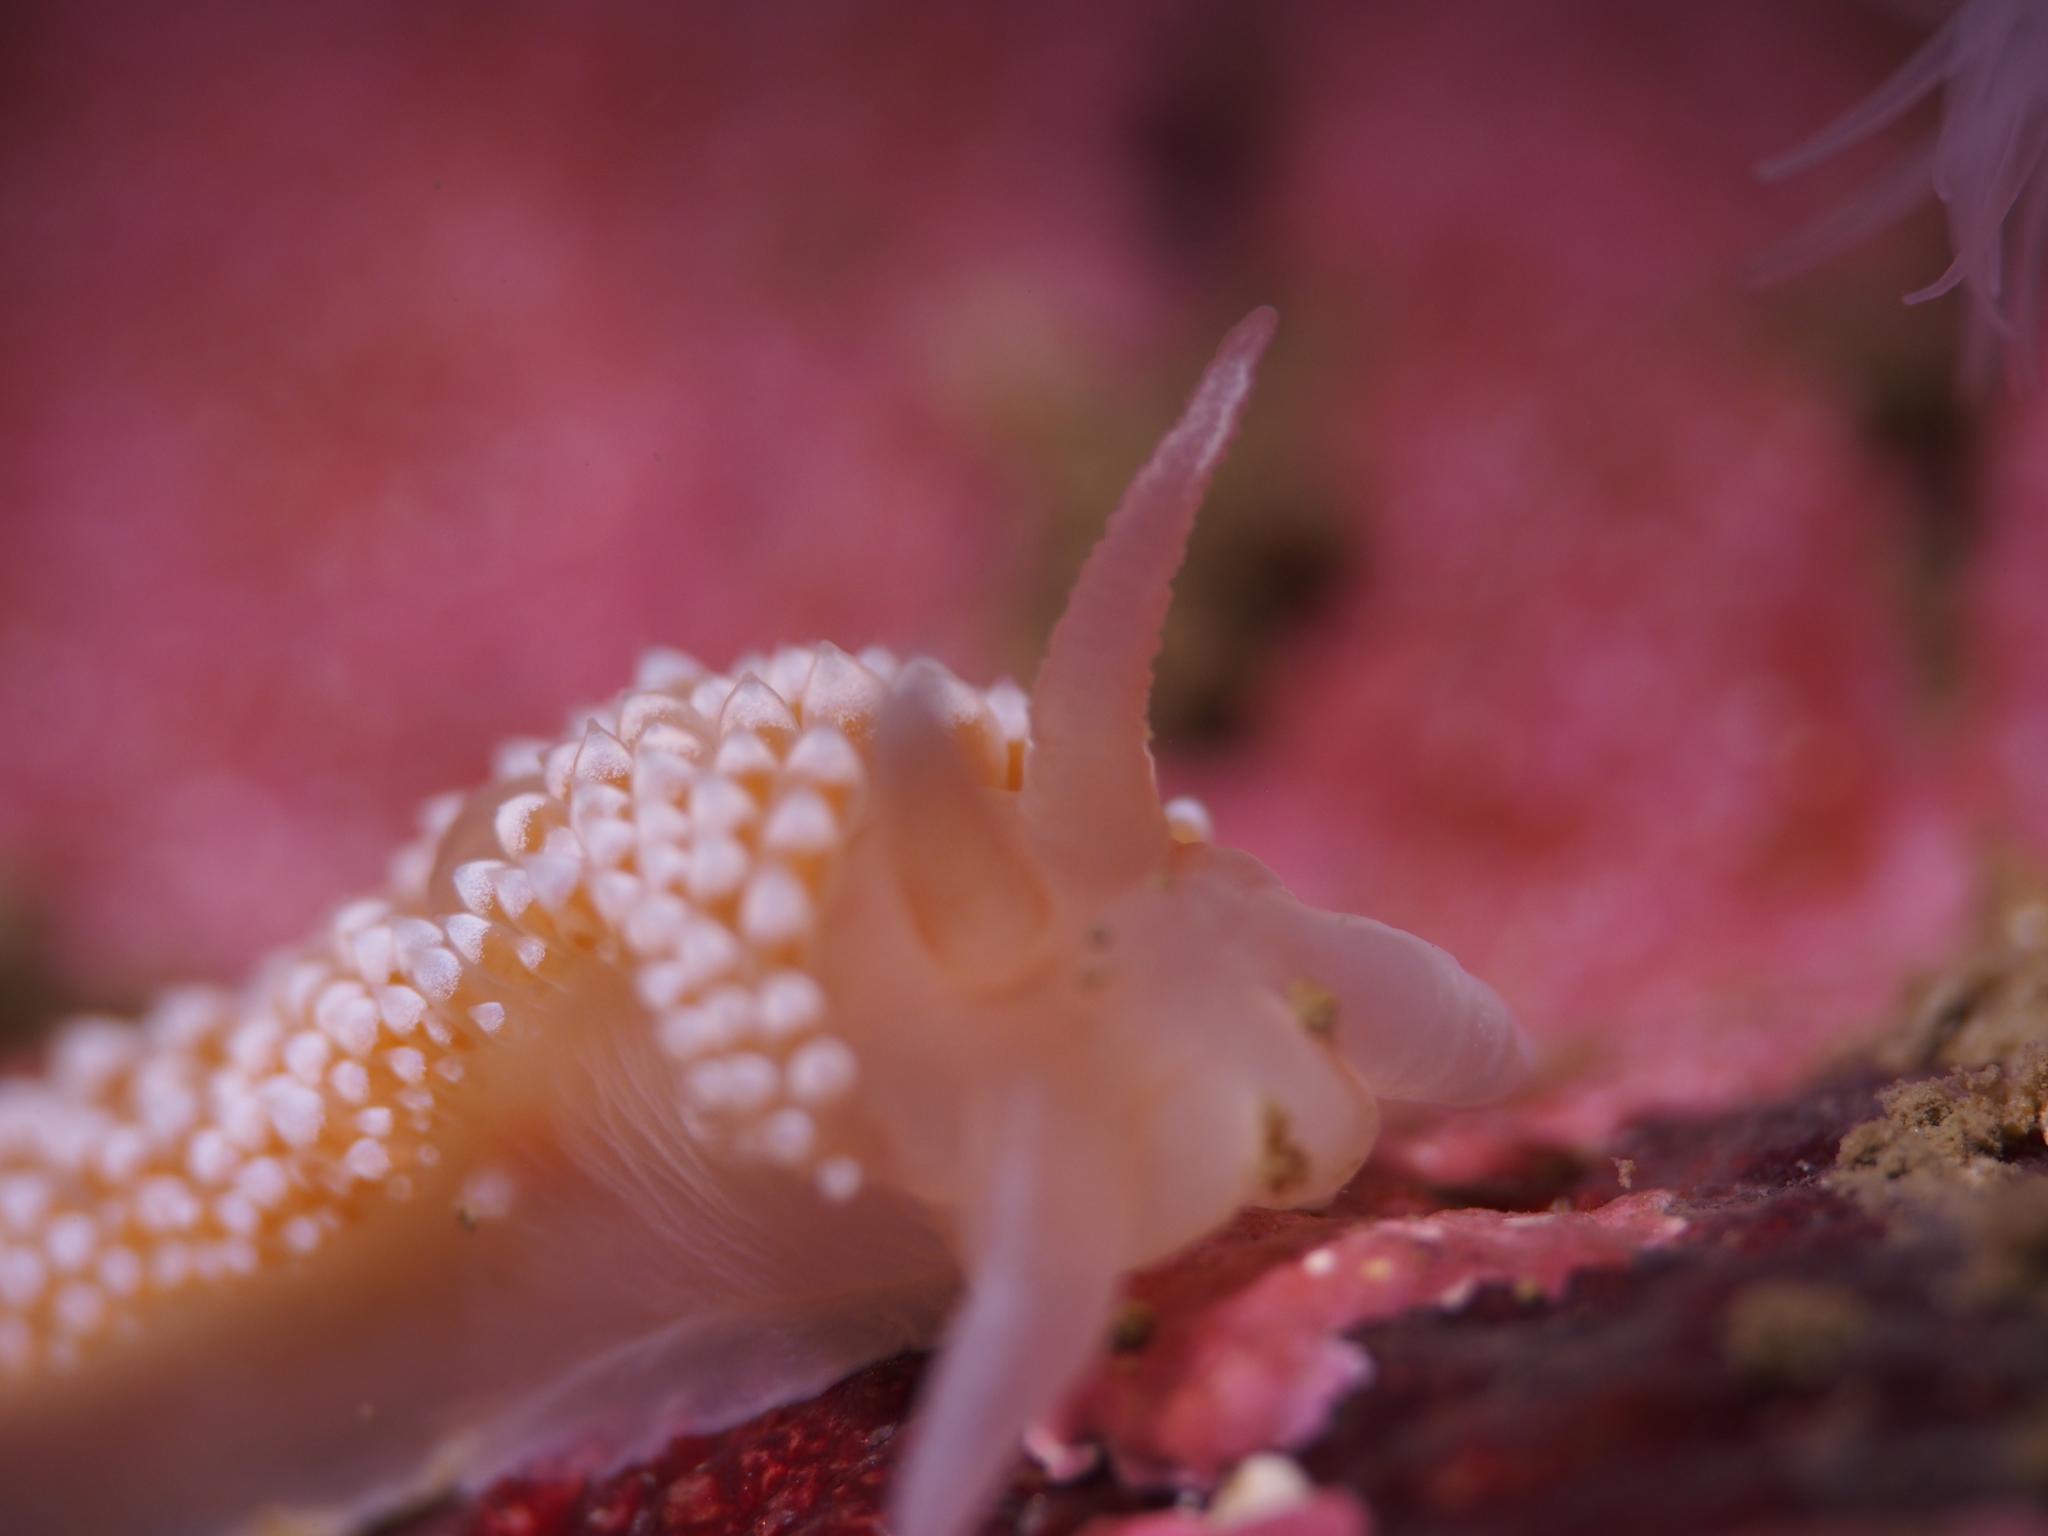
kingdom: Animalia
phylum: Mollusca
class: Gastropoda
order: Nudibranchia
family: Coryphellidae
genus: Coryphella
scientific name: Coryphella verrucosa
